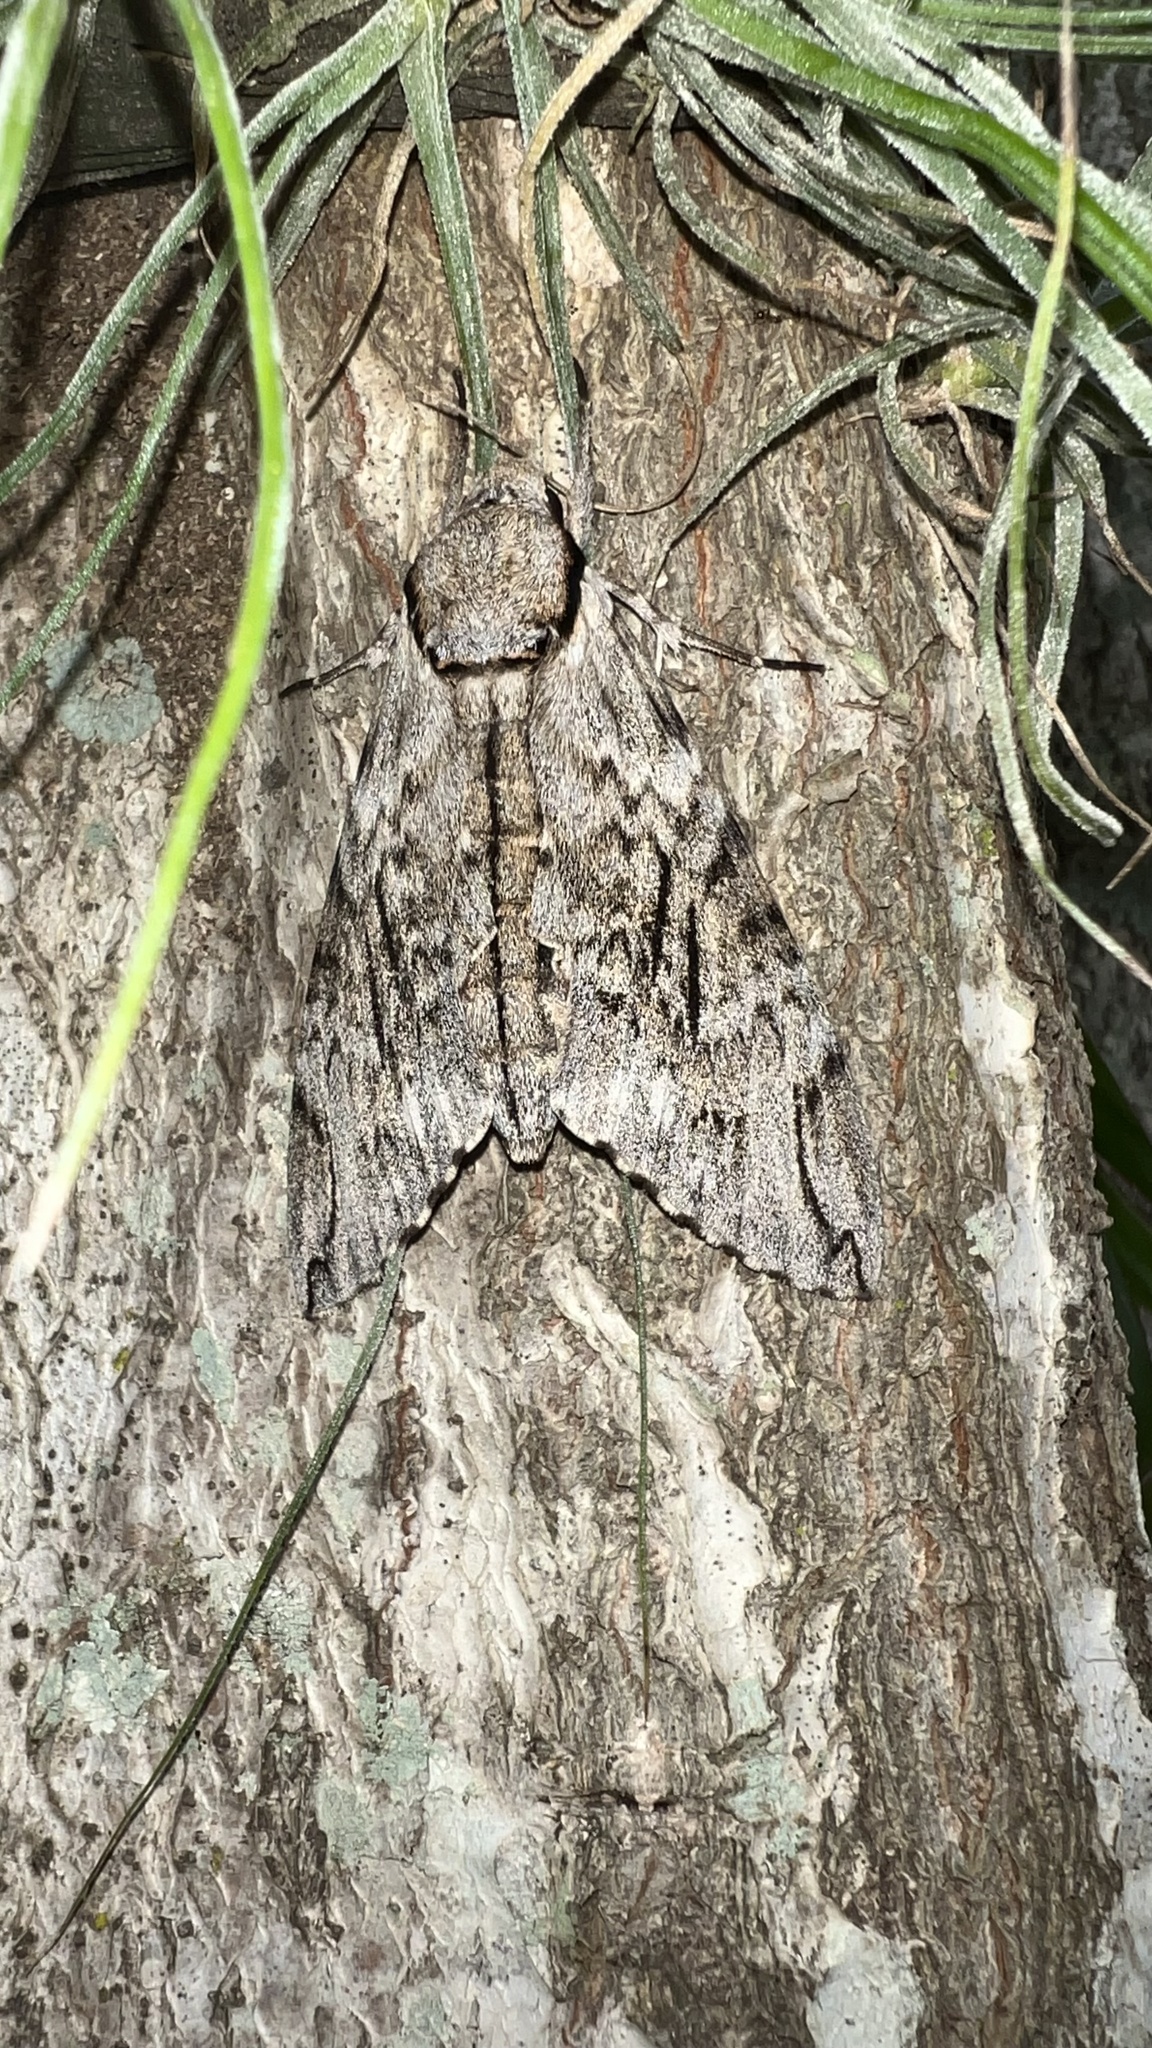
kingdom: Animalia
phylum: Arthropoda
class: Insecta
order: Lepidoptera
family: Sphingidae
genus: Psilogramma
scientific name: Psilogramma casuarinae
